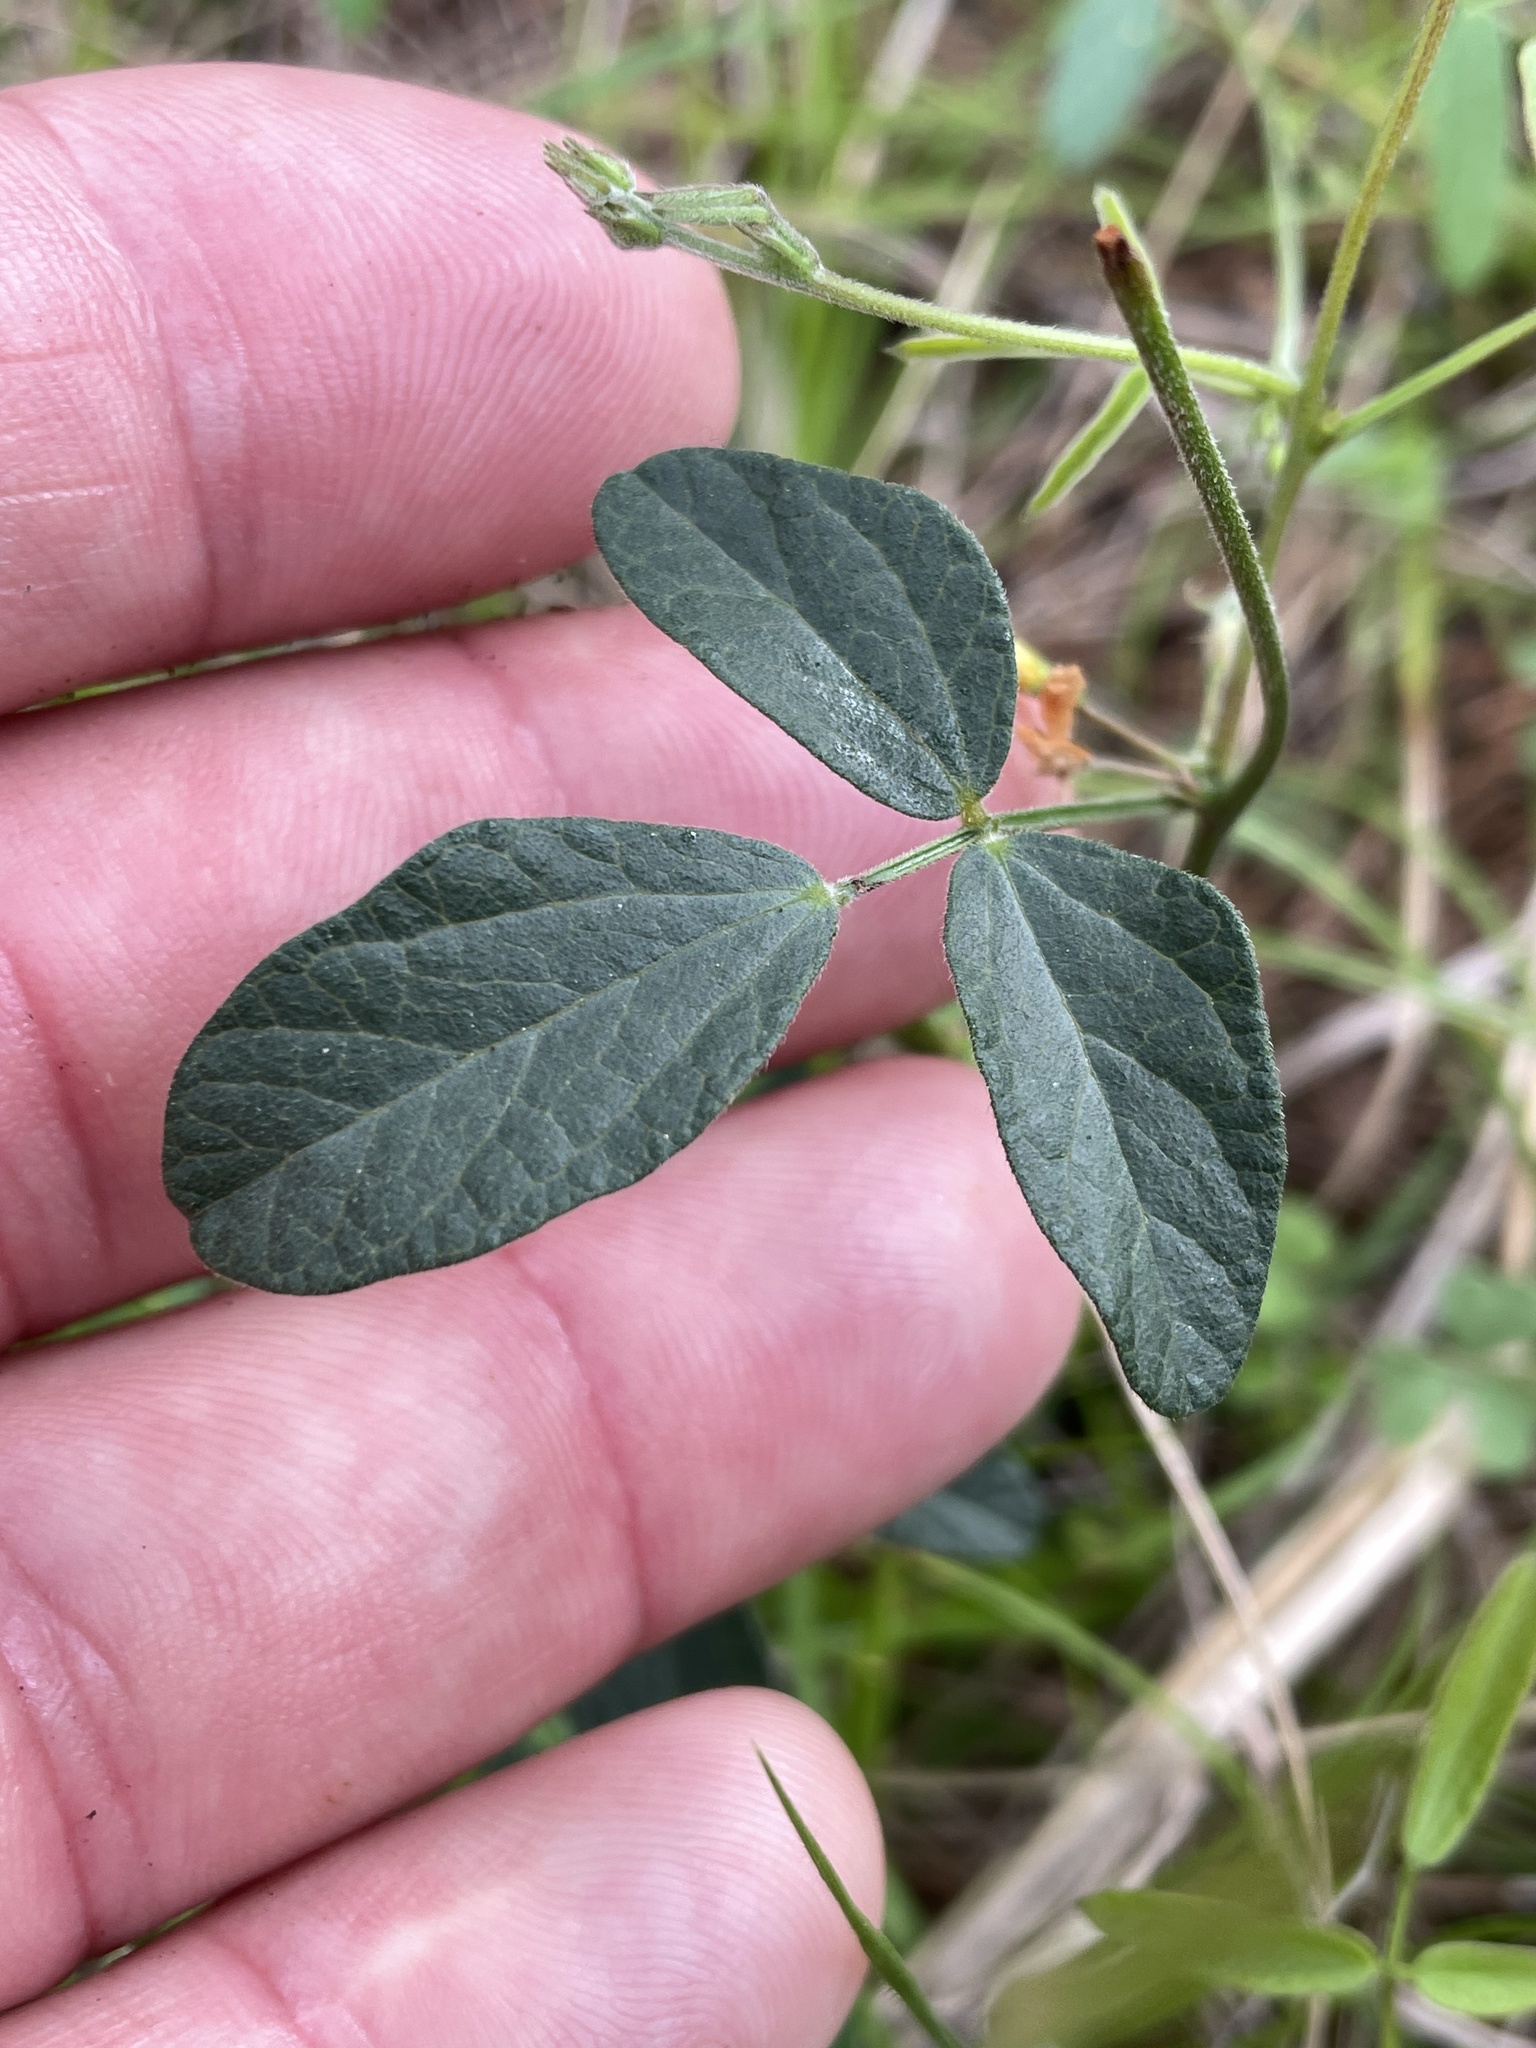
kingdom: Plantae
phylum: Tracheophyta
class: Magnoliopsida
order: Fabales
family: Fabaceae
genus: Rhynchosia
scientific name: Rhynchosia senna
